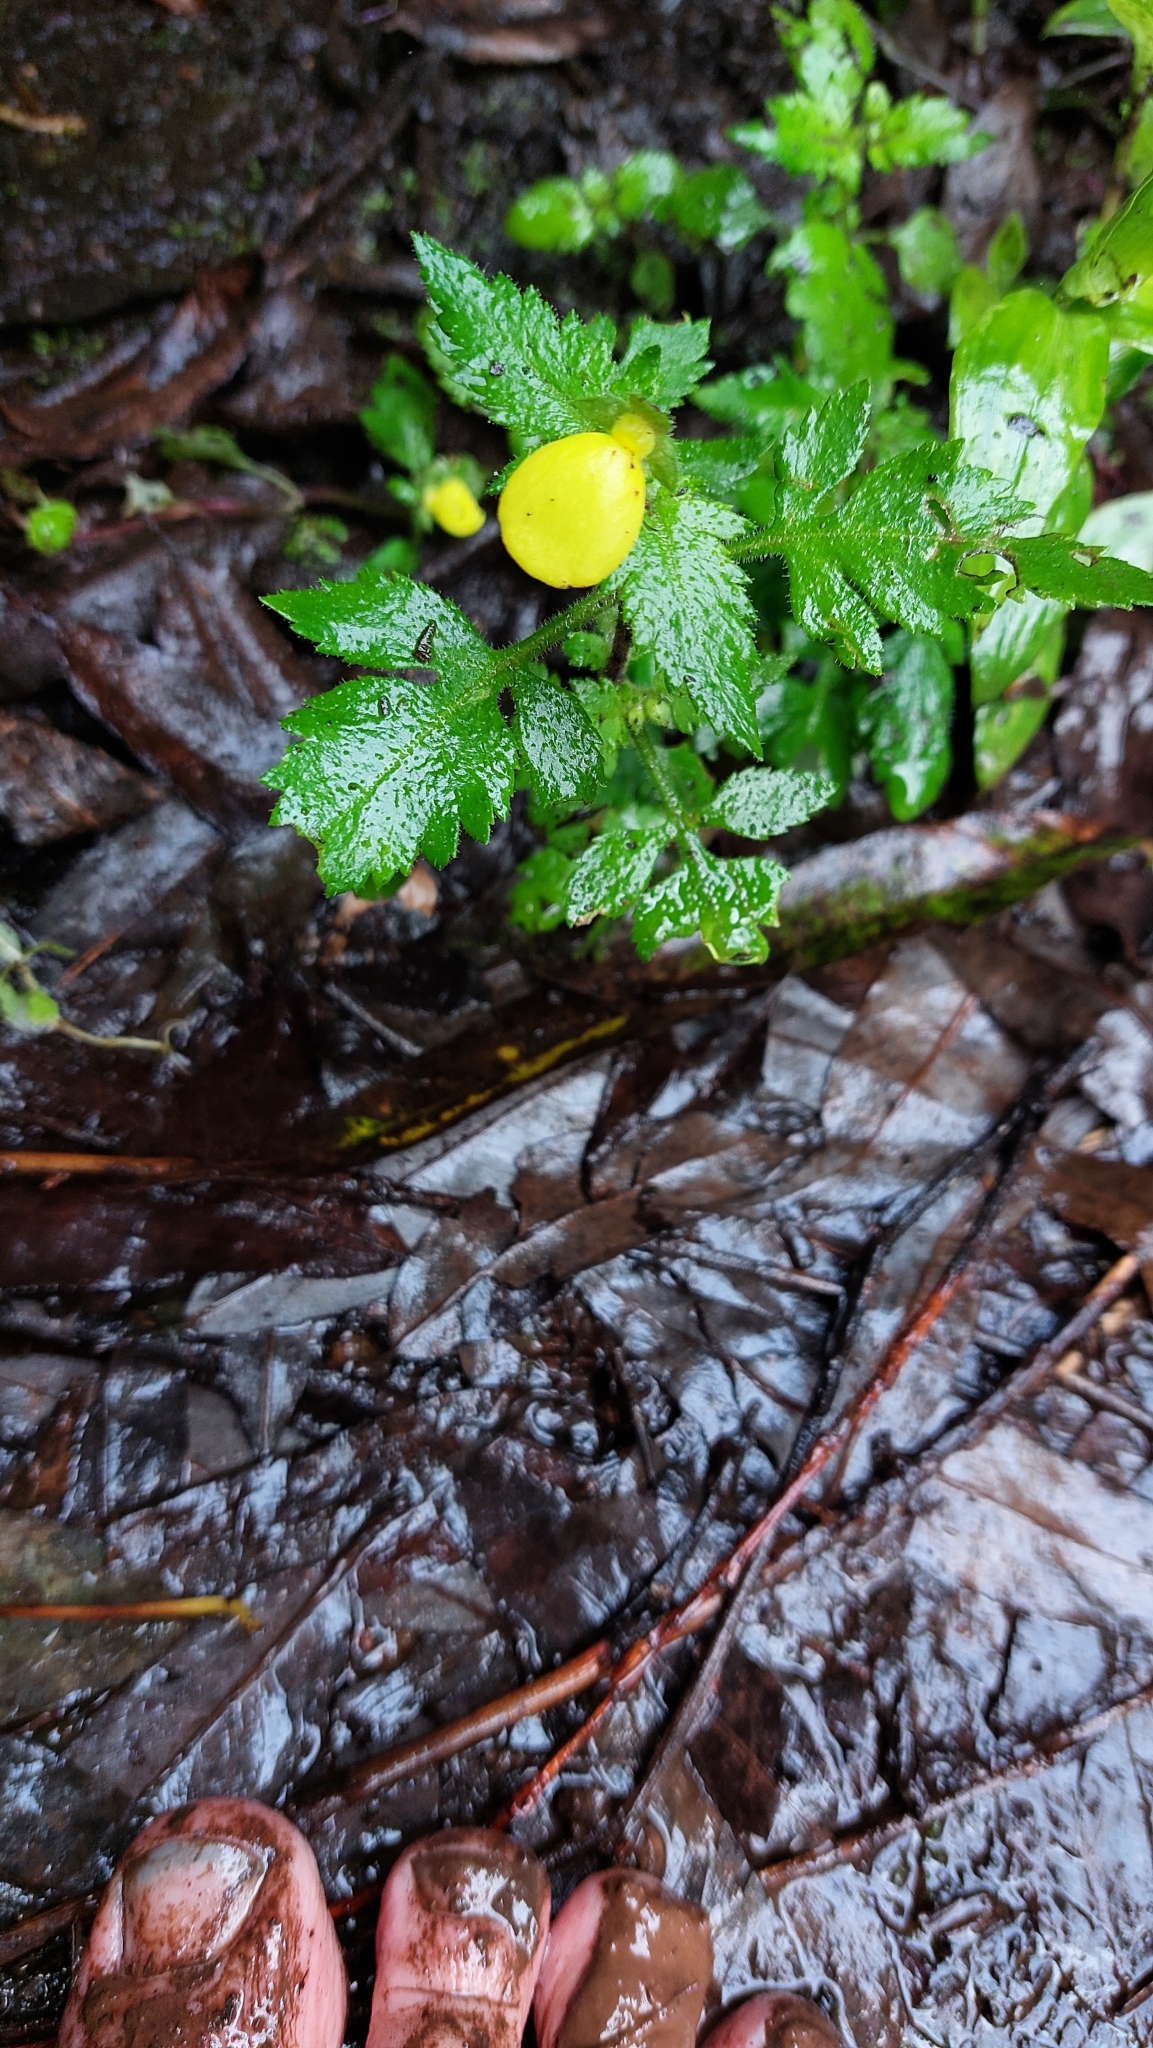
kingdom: Plantae
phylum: Tracheophyta
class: Magnoliopsida
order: Lamiales
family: Calceolariaceae
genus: Calceolaria
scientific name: Calceolaria tripartita
